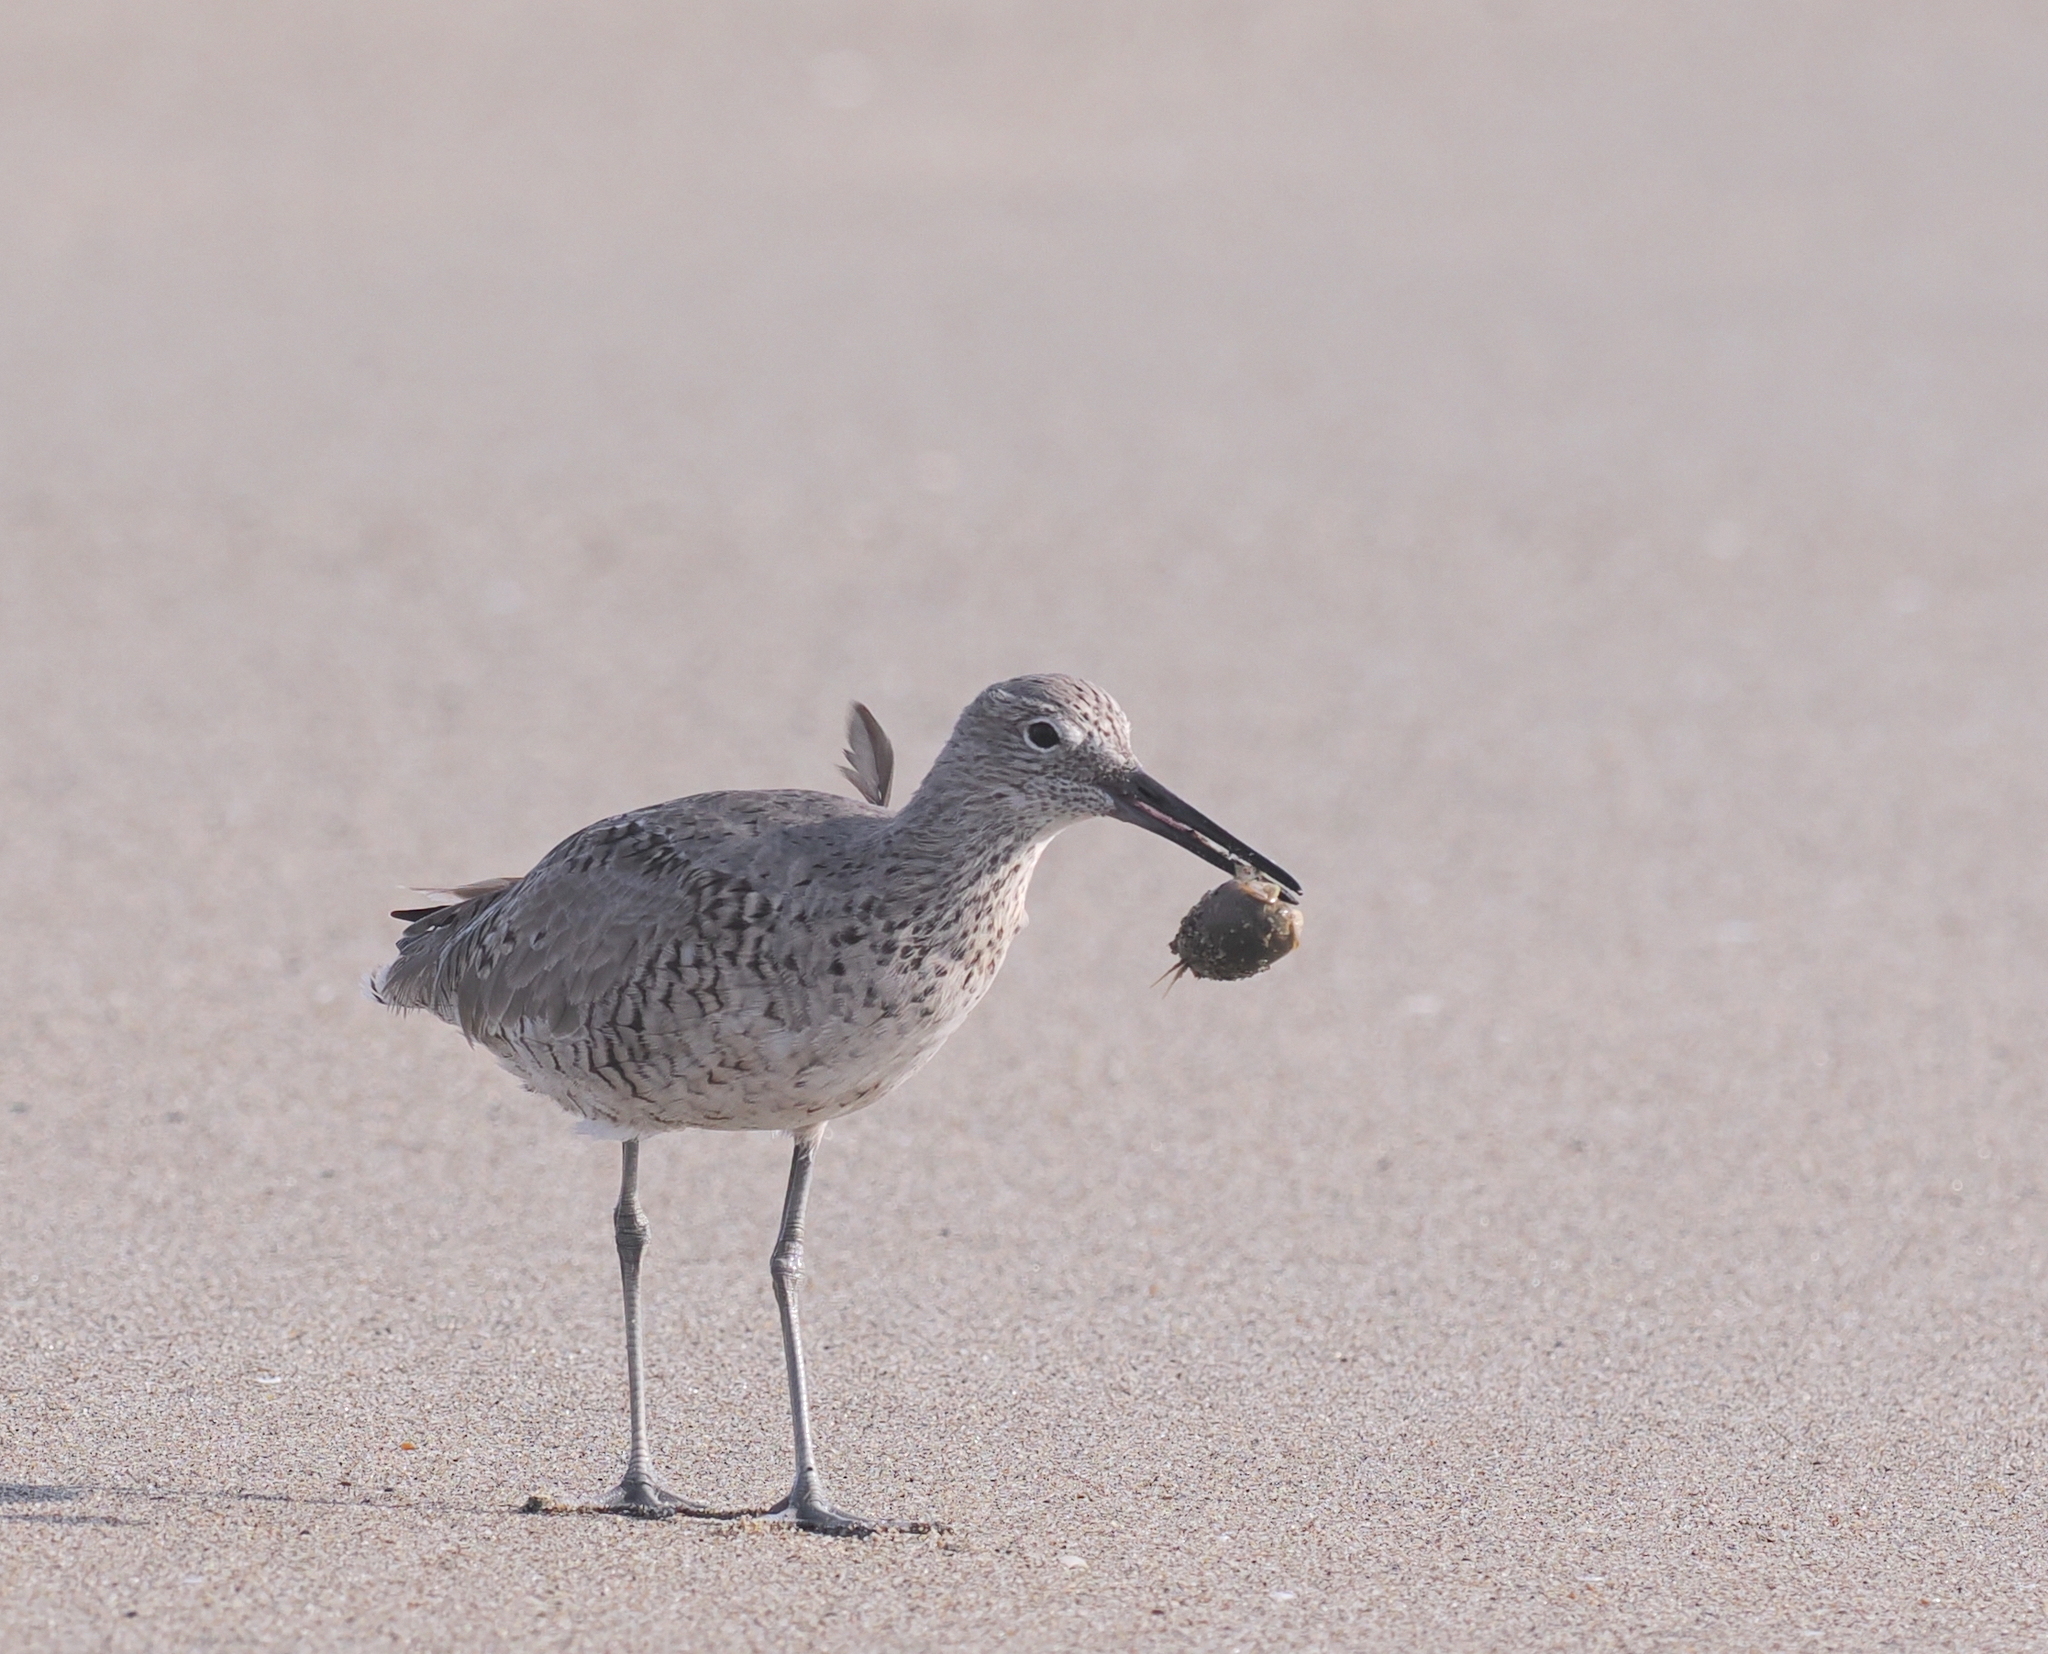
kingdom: Animalia
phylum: Chordata
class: Aves
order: Charadriiformes
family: Scolopacidae
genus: Tringa
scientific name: Tringa semipalmata
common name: Willet
